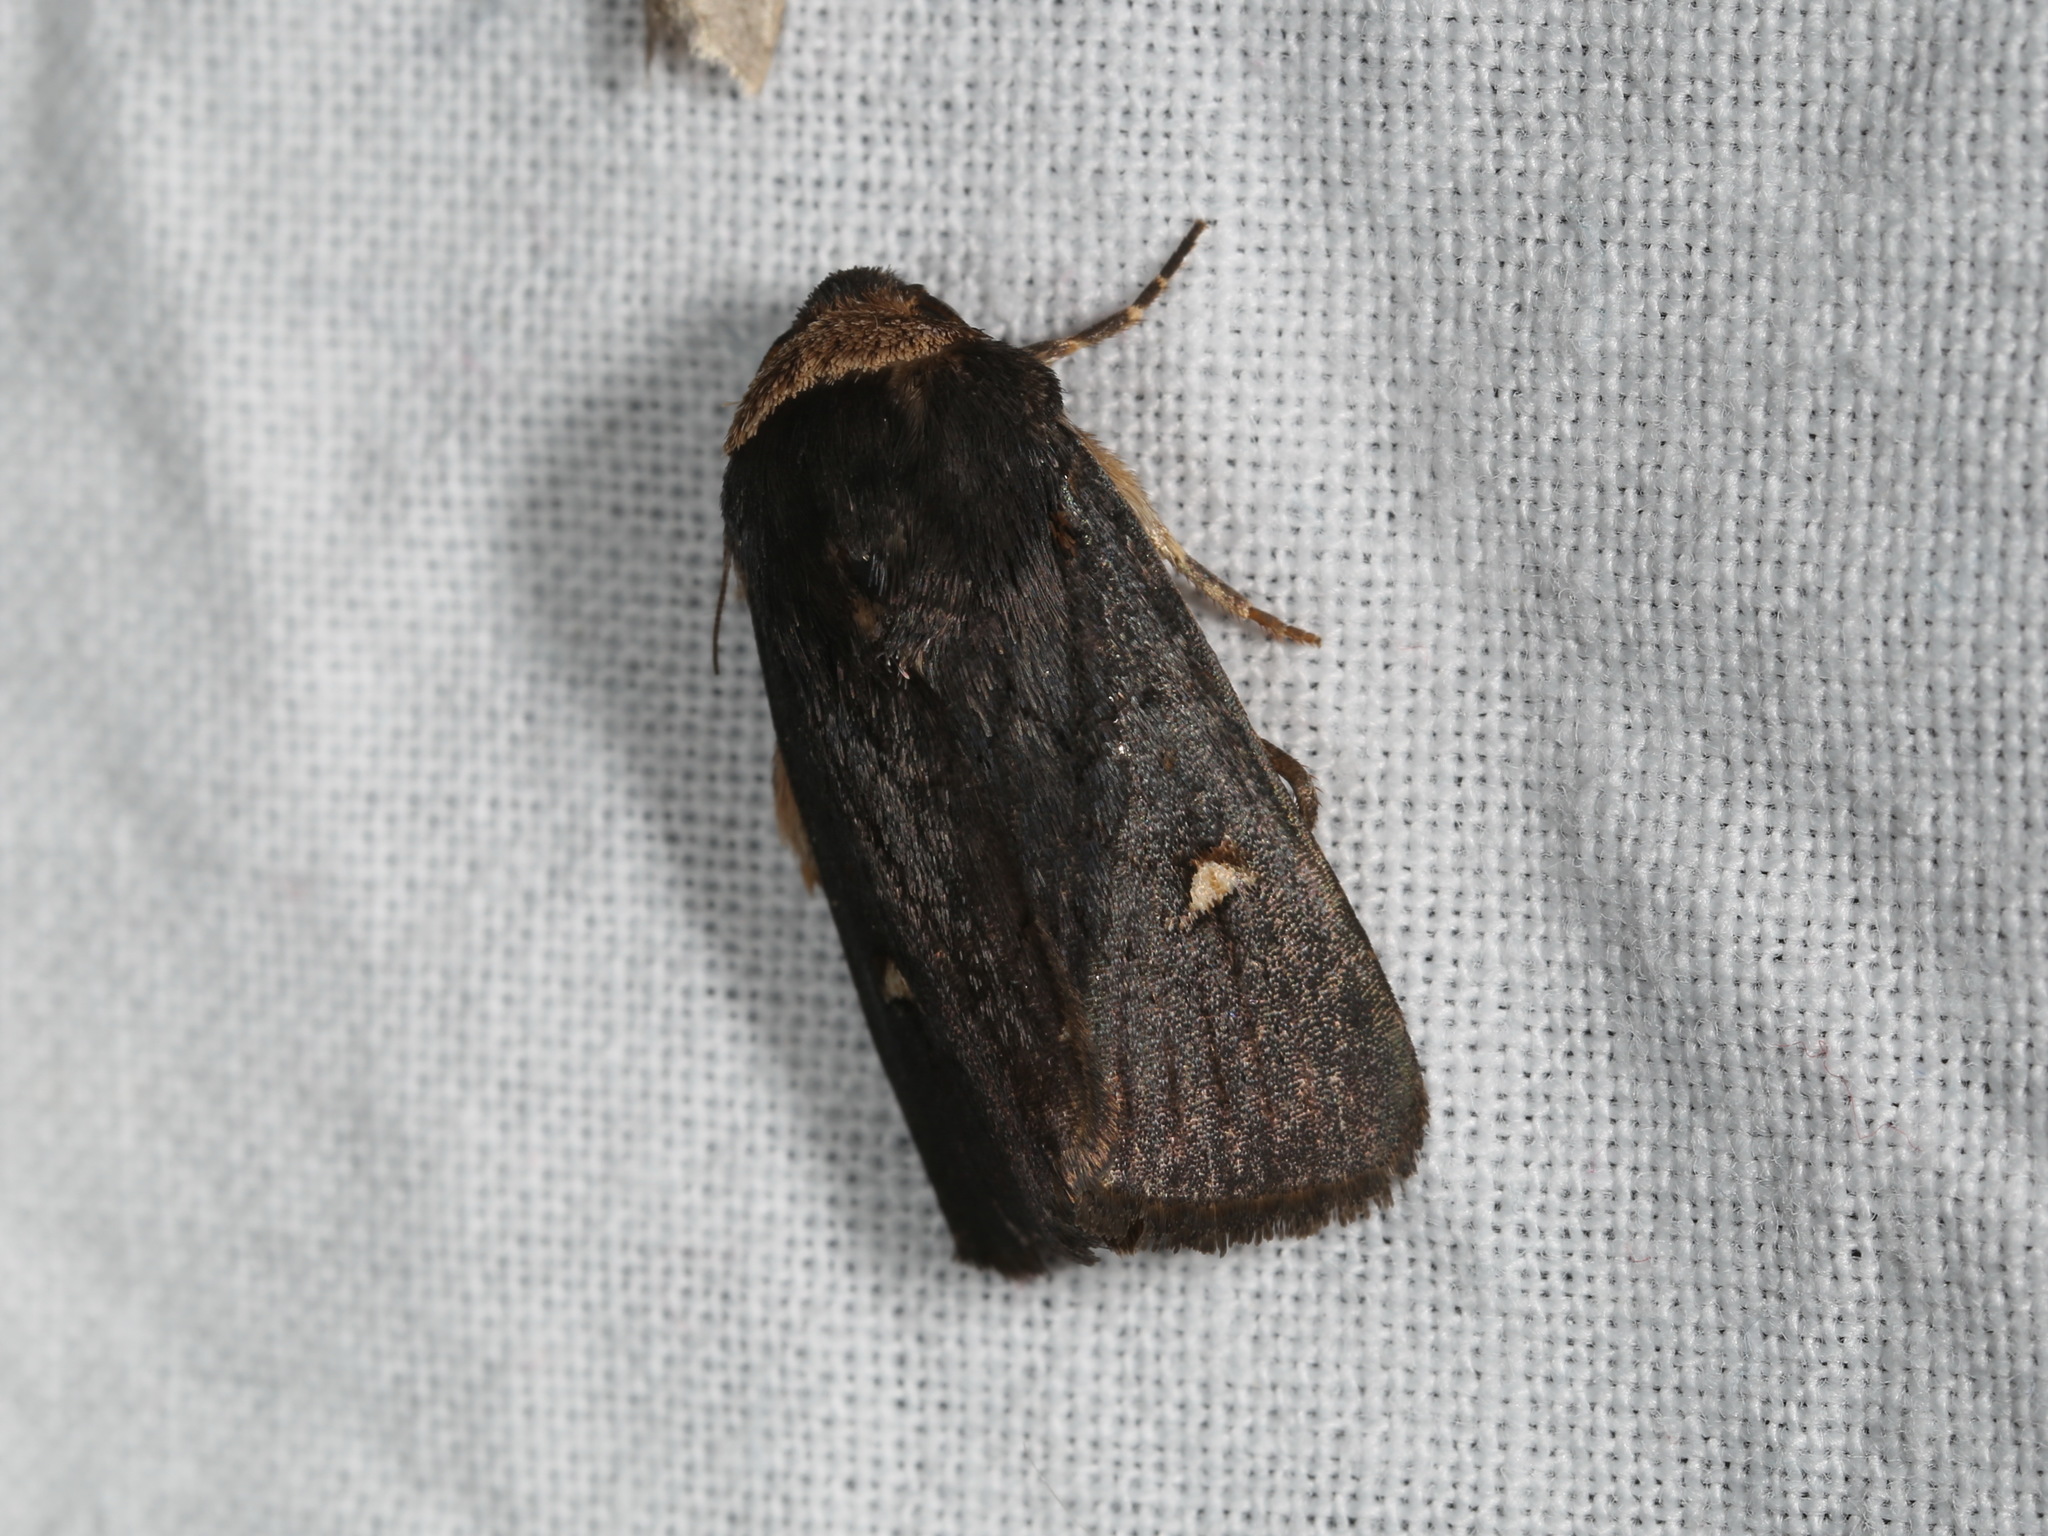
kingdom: Animalia
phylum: Arthropoda
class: Insecta
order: Lepidoptera
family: Noctuidae
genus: Proteuxoa
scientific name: Proteuxoa testaceicollis
